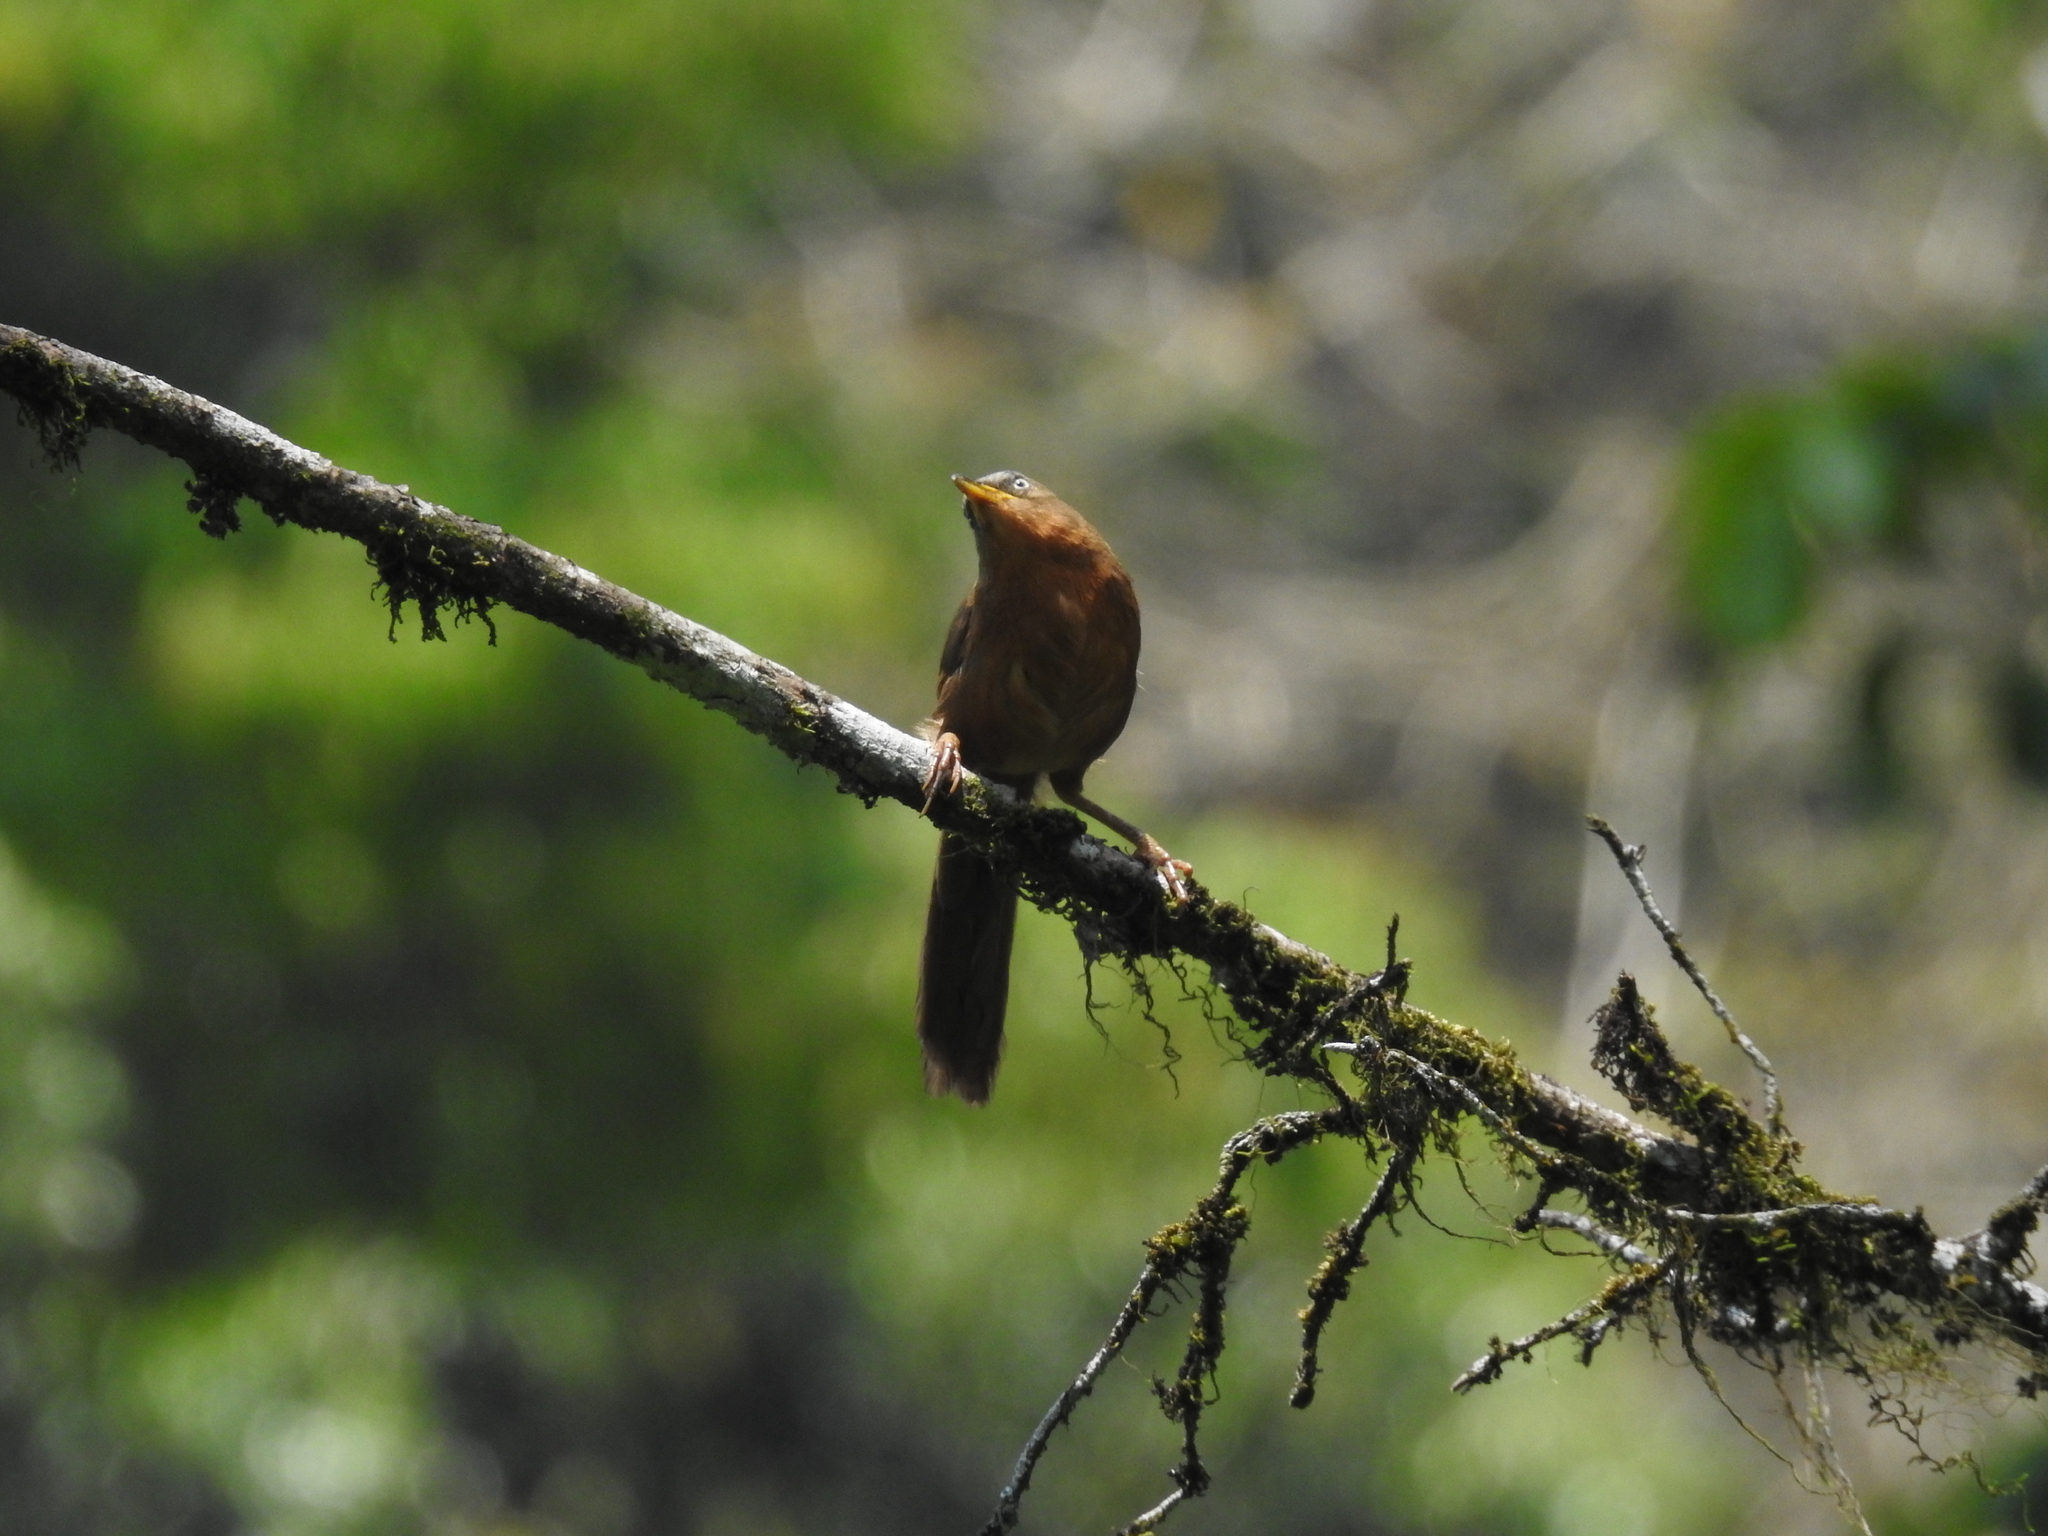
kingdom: Animalia
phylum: Chordata
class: Aves
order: Passeriformes
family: Leiothrichidae
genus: Turdoides
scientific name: Turdoides subrufa
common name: Rufous babbler
